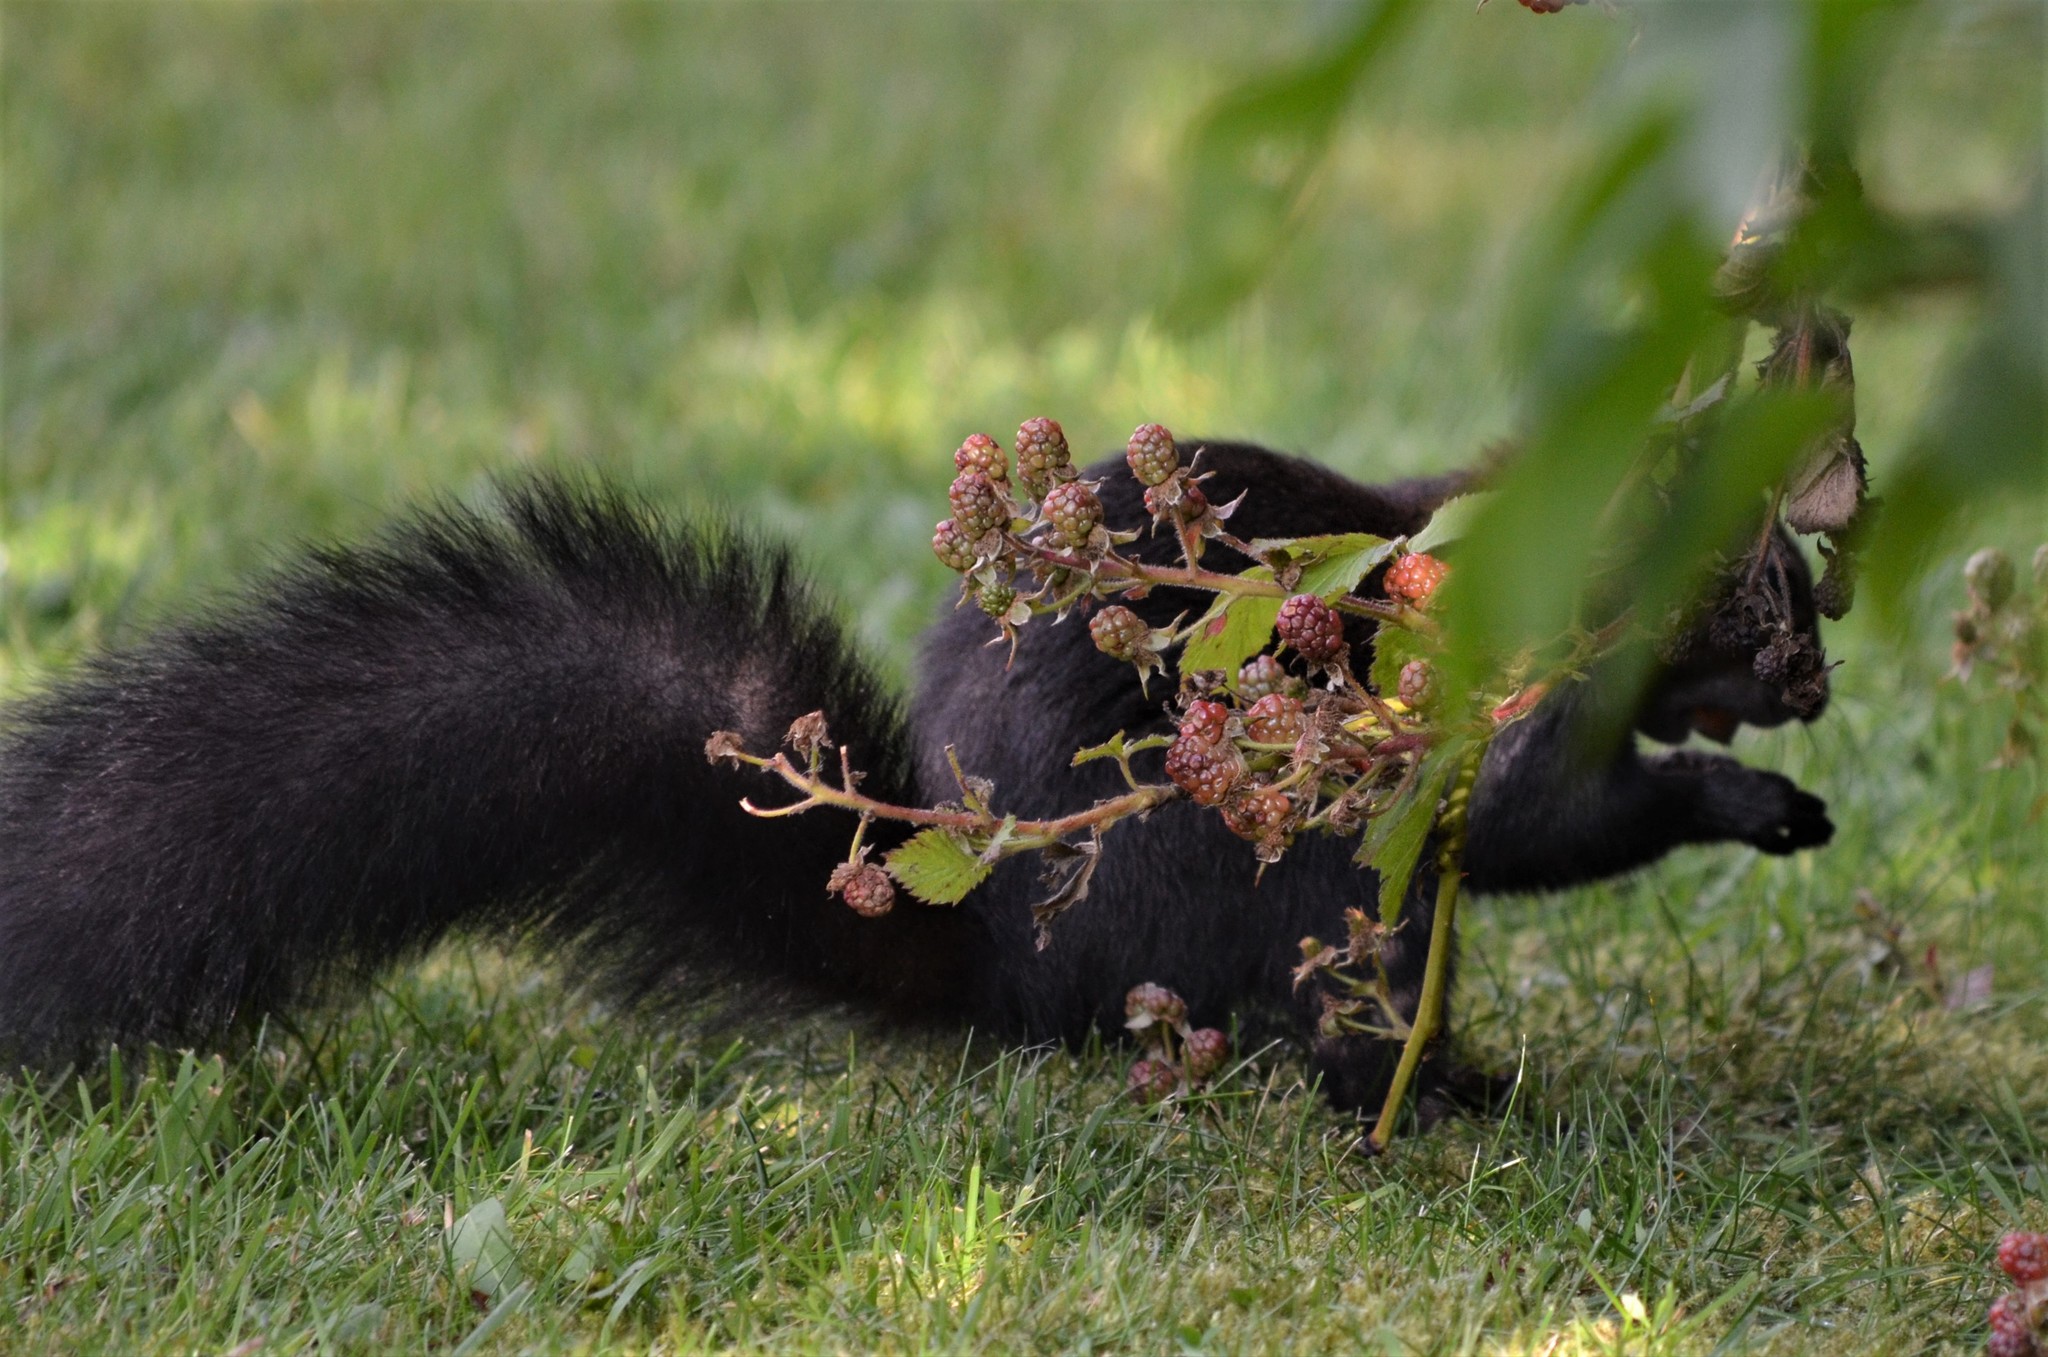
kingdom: Animalia
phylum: Chordata
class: Mammalia
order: Rodentia
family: Sciuridae
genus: Sciurus
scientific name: Sciurus vulgaris
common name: Eurasian red squirrel
